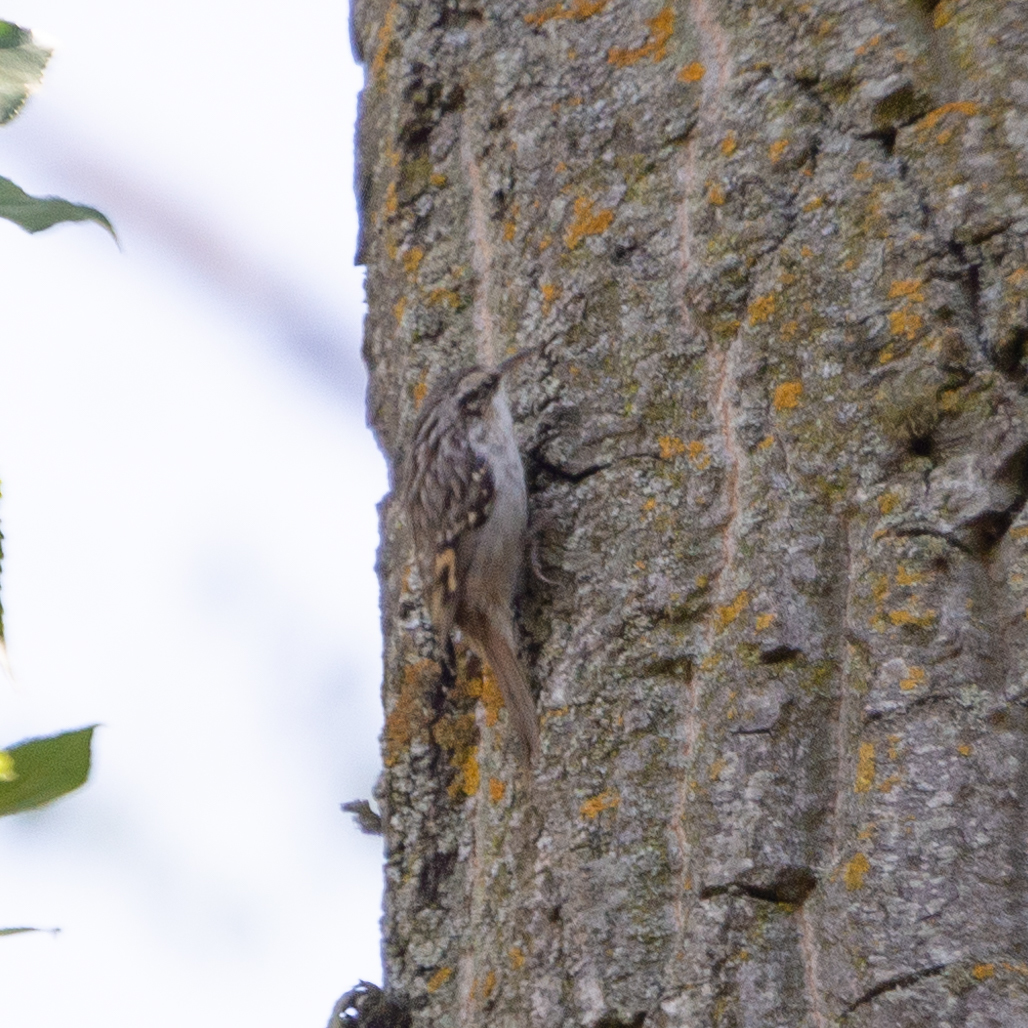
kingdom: Animalia
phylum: Chordata
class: Aves
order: Passeriformes
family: Certhiidae
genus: Certhia
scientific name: Certhia brachydactyla
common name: Short-toed treecreeper
